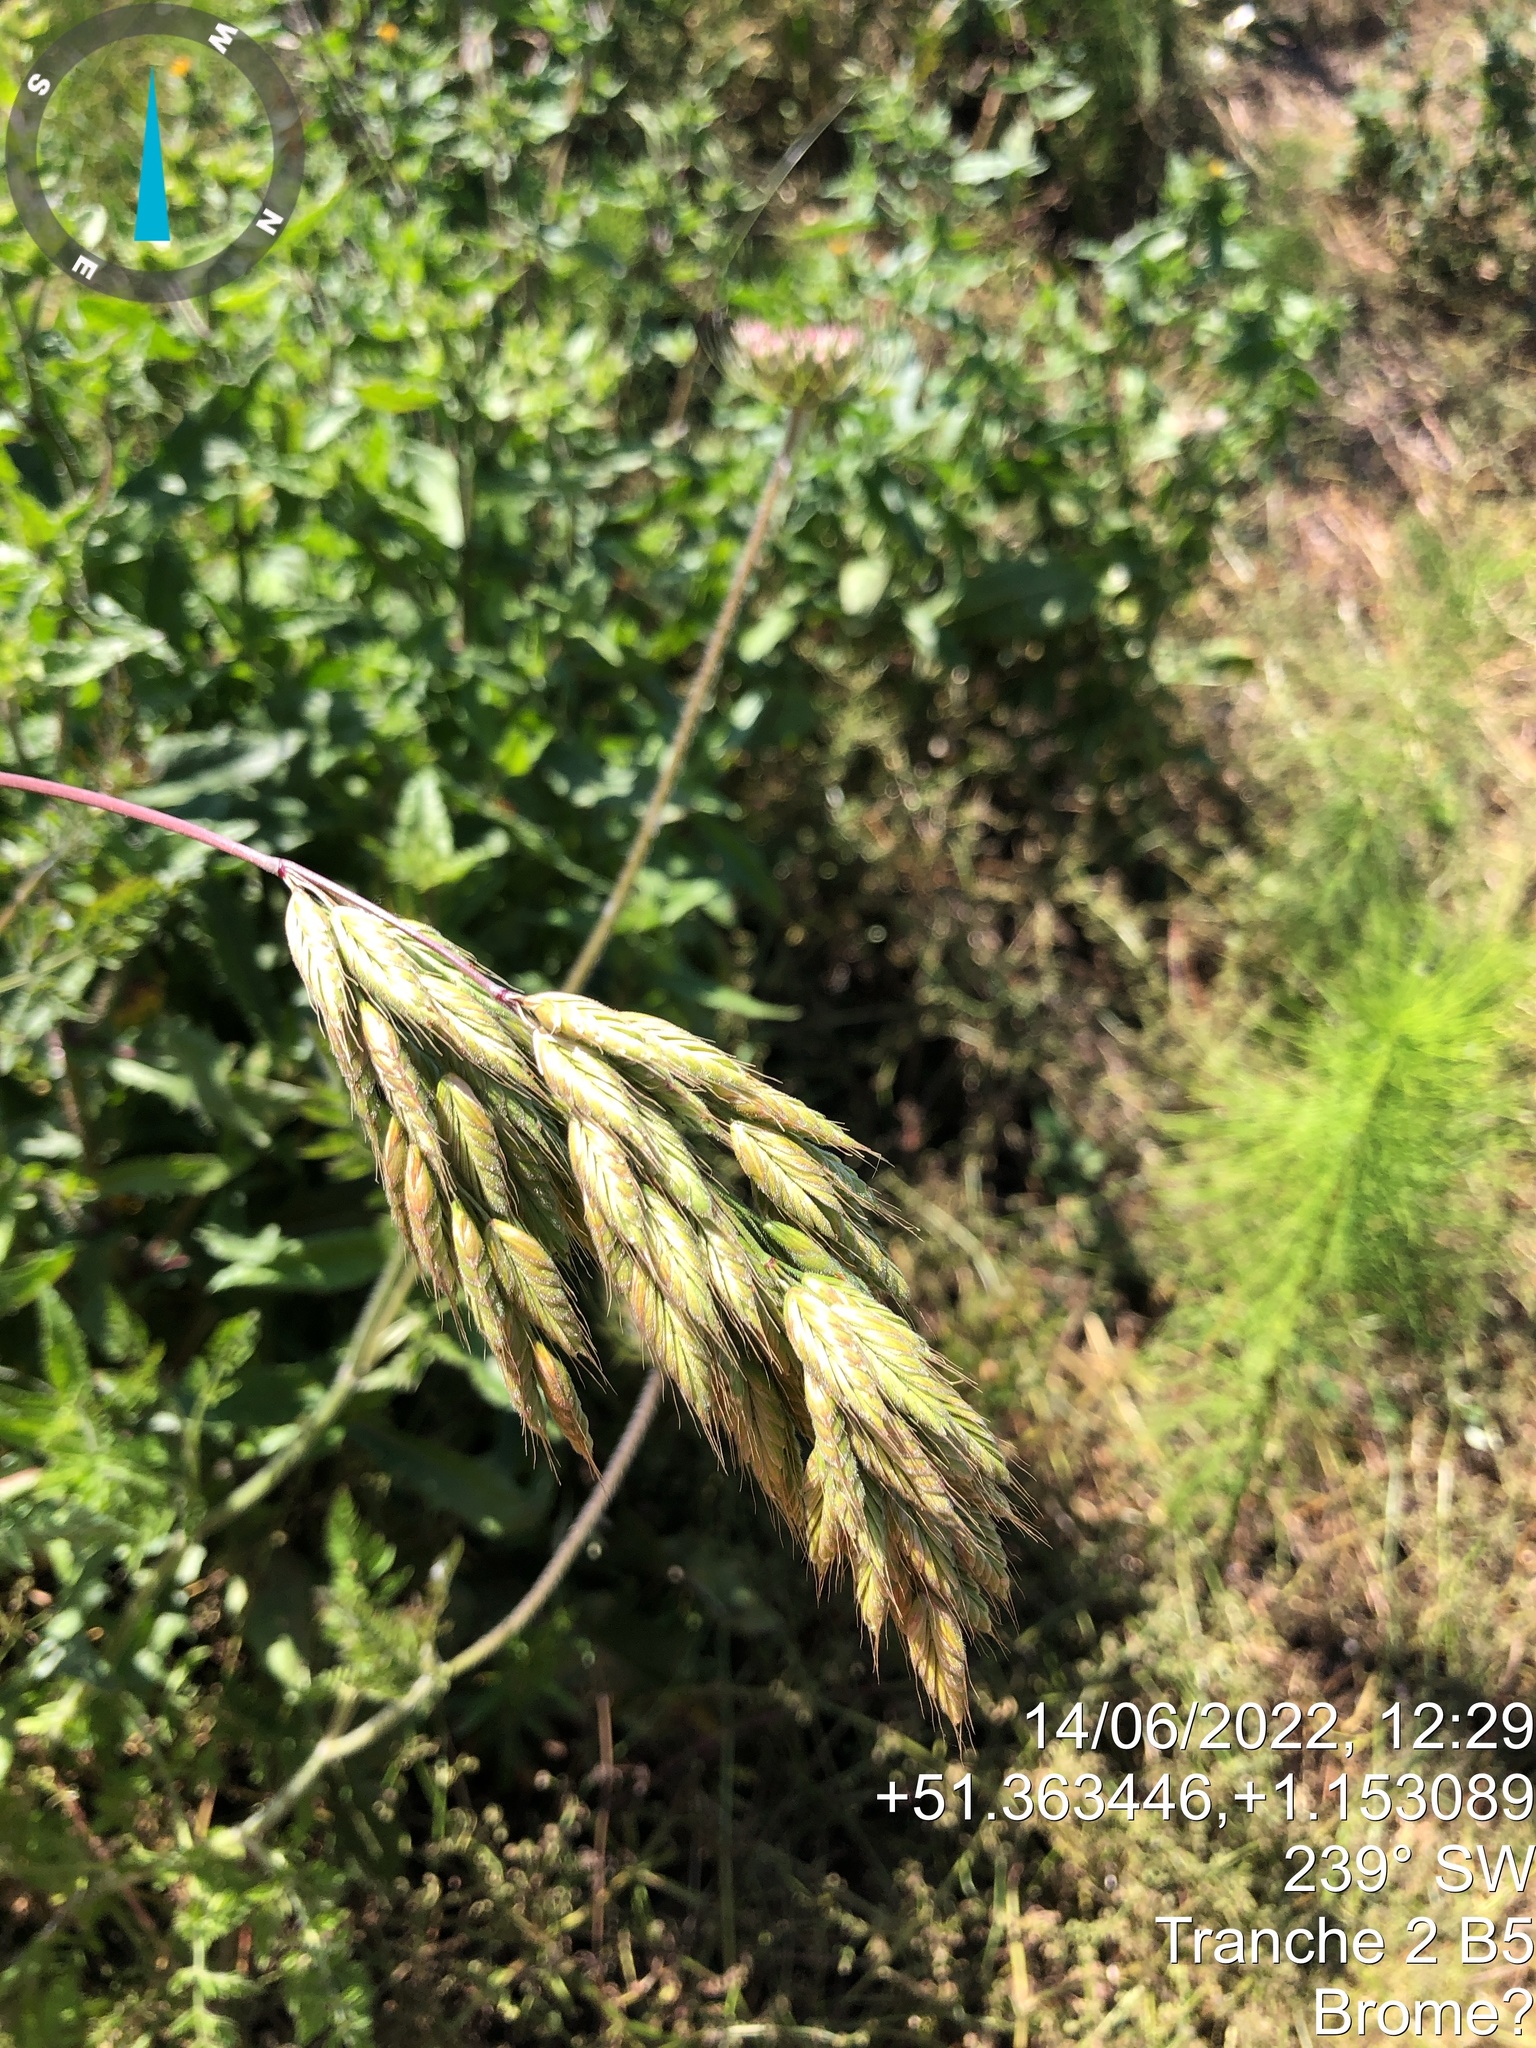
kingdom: Plantae
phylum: Tracheophyta
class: Liliopsida
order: Poales
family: Poaceae
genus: Bromus
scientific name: Bromus hordeaceus
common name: Soft brome
